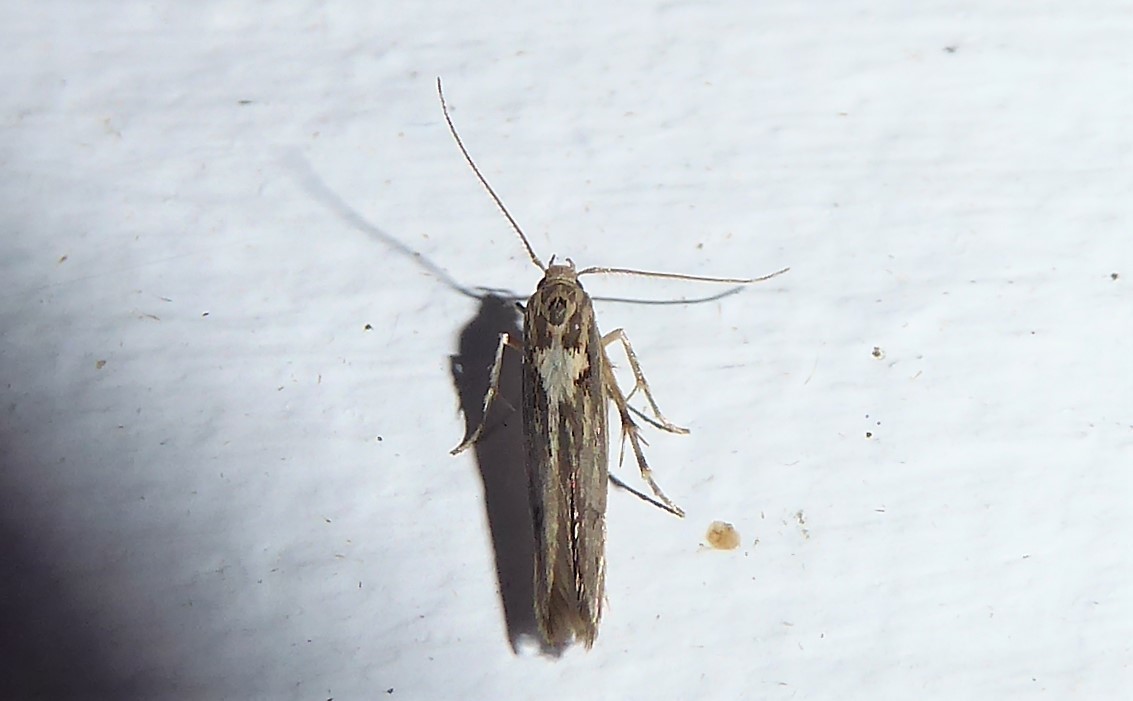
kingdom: Animalia
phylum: Arthropoda
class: Insecta
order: Lepidoptera
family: Stathmopodidae
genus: Stathmopoda
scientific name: Stathmopoda plumbiflua
